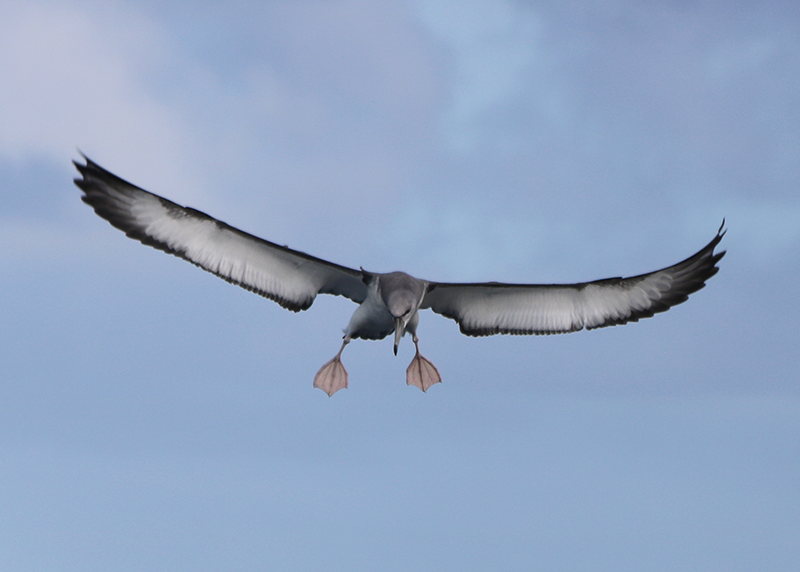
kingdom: Animalia
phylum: Chordata
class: Aves
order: Procellariiformes
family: Diomedeidae
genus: Thalassarche
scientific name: Thalassarche cauta
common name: Shy albatross
